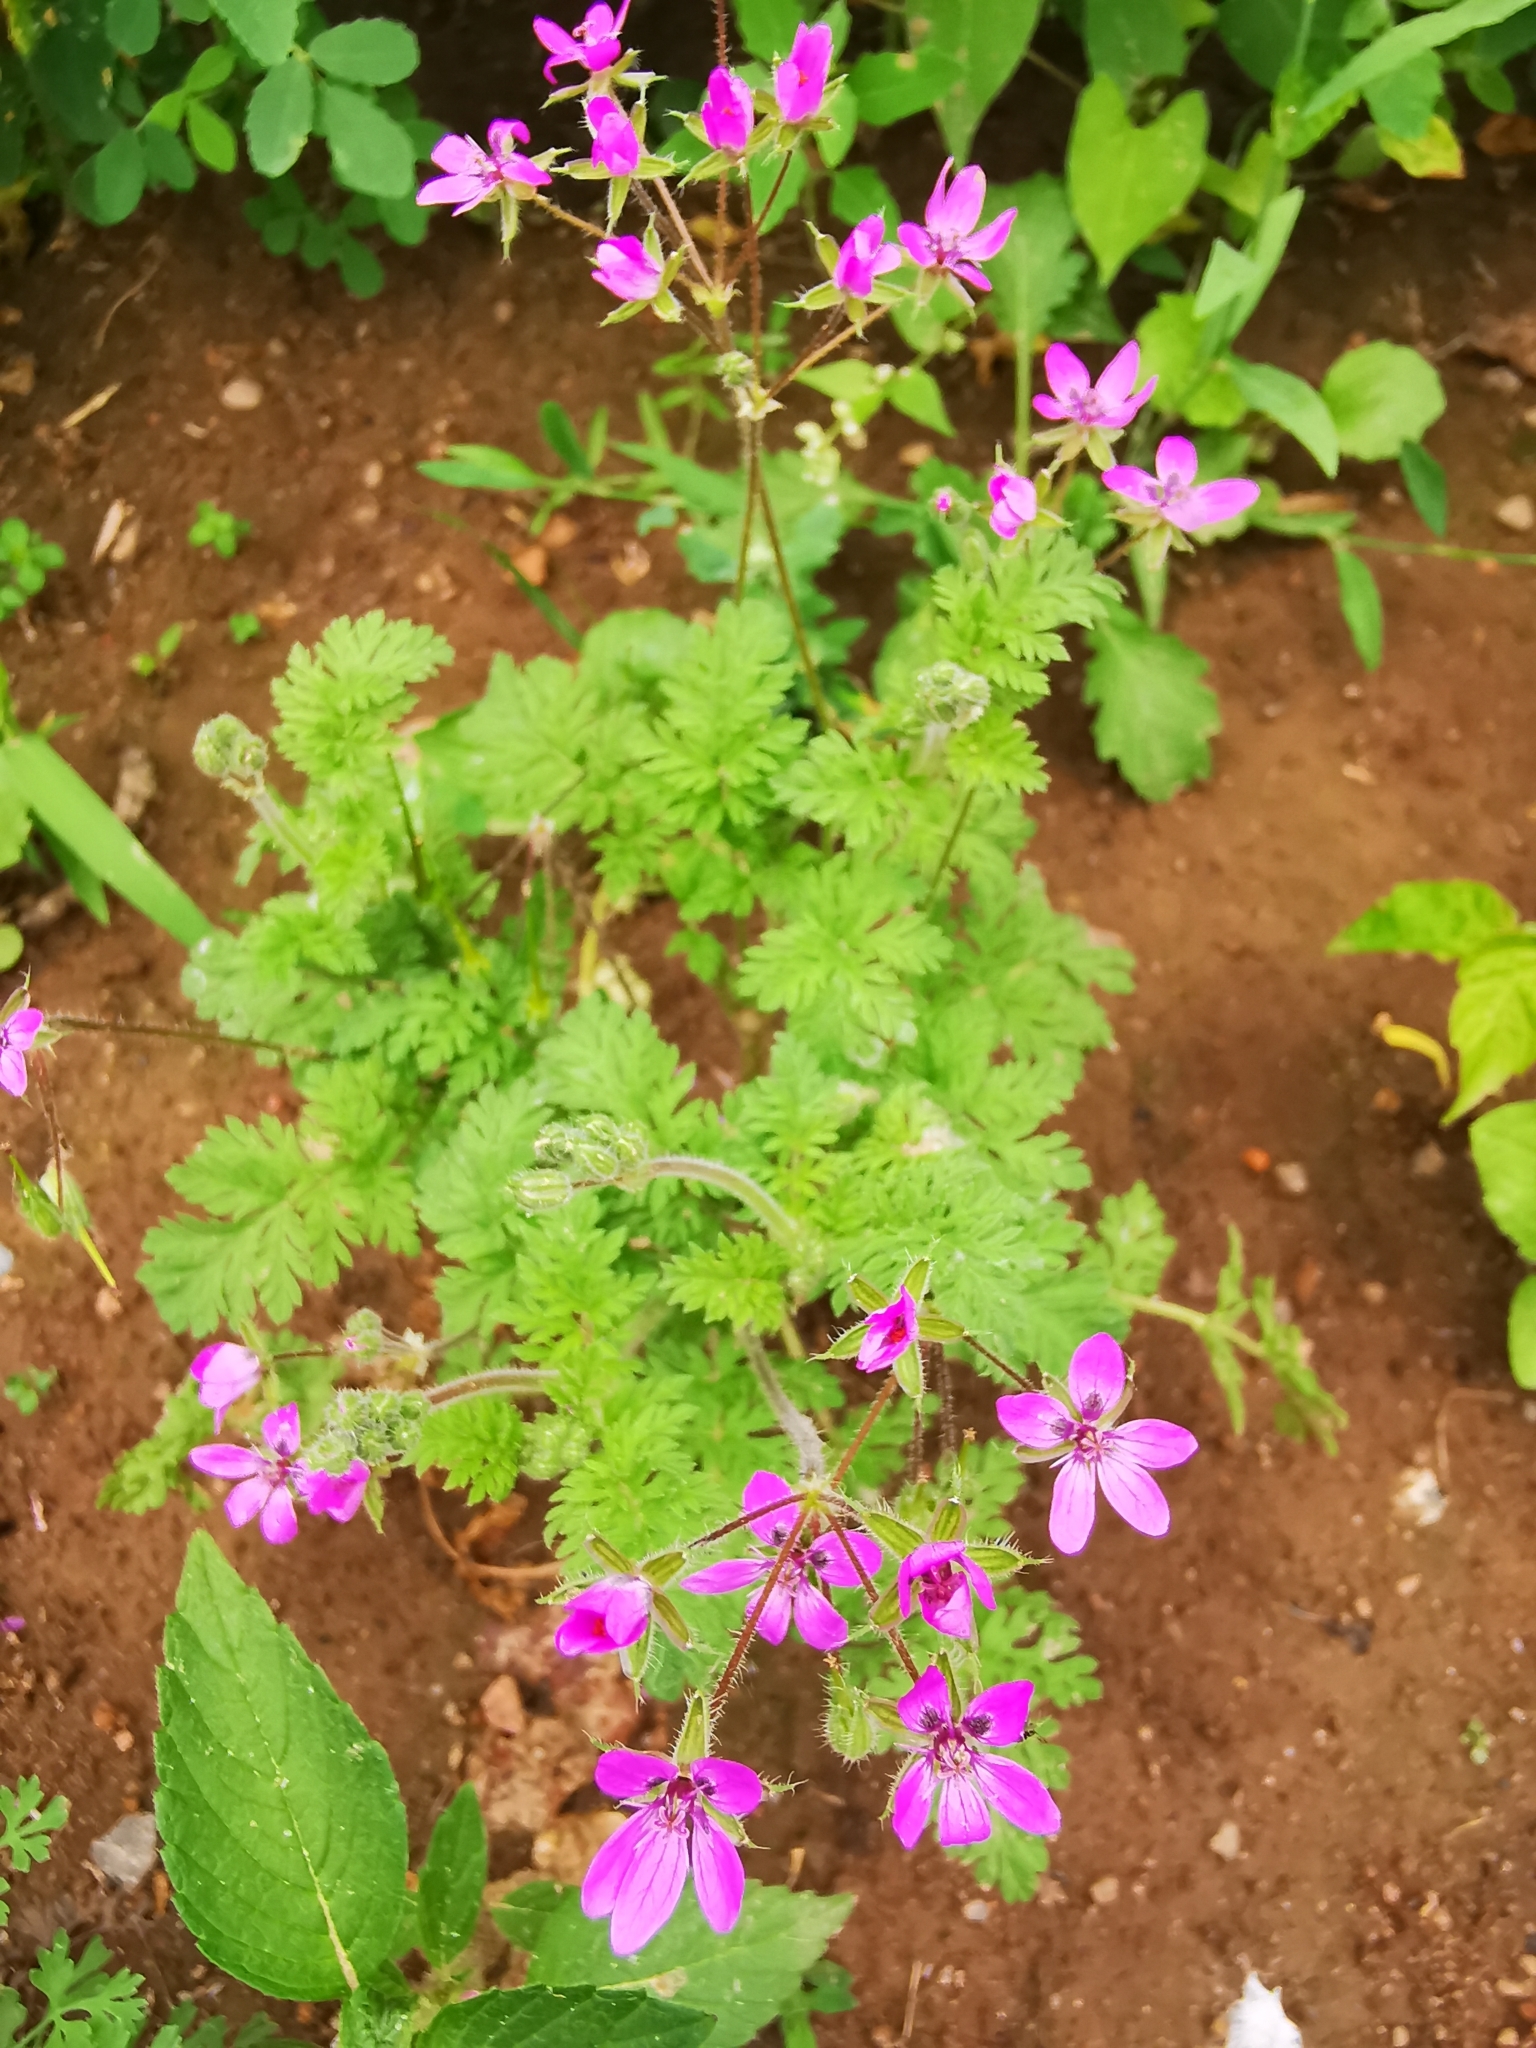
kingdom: Plantae
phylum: Tracheophyta
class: Magnoliopsida
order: Geraniales
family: Geraniaceae
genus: Erodium
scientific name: Erodium cicutarium
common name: Common stork's-bill
